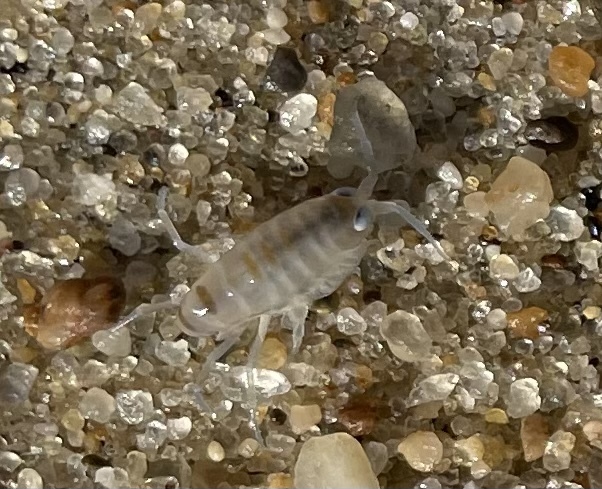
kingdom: Animalia
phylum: Arthropoda
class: Malacostraca
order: Amphipoda
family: Talitridae
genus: Americorchestia
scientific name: Americorchestia megalophthalma
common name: Northern big-eyed sandhopper
